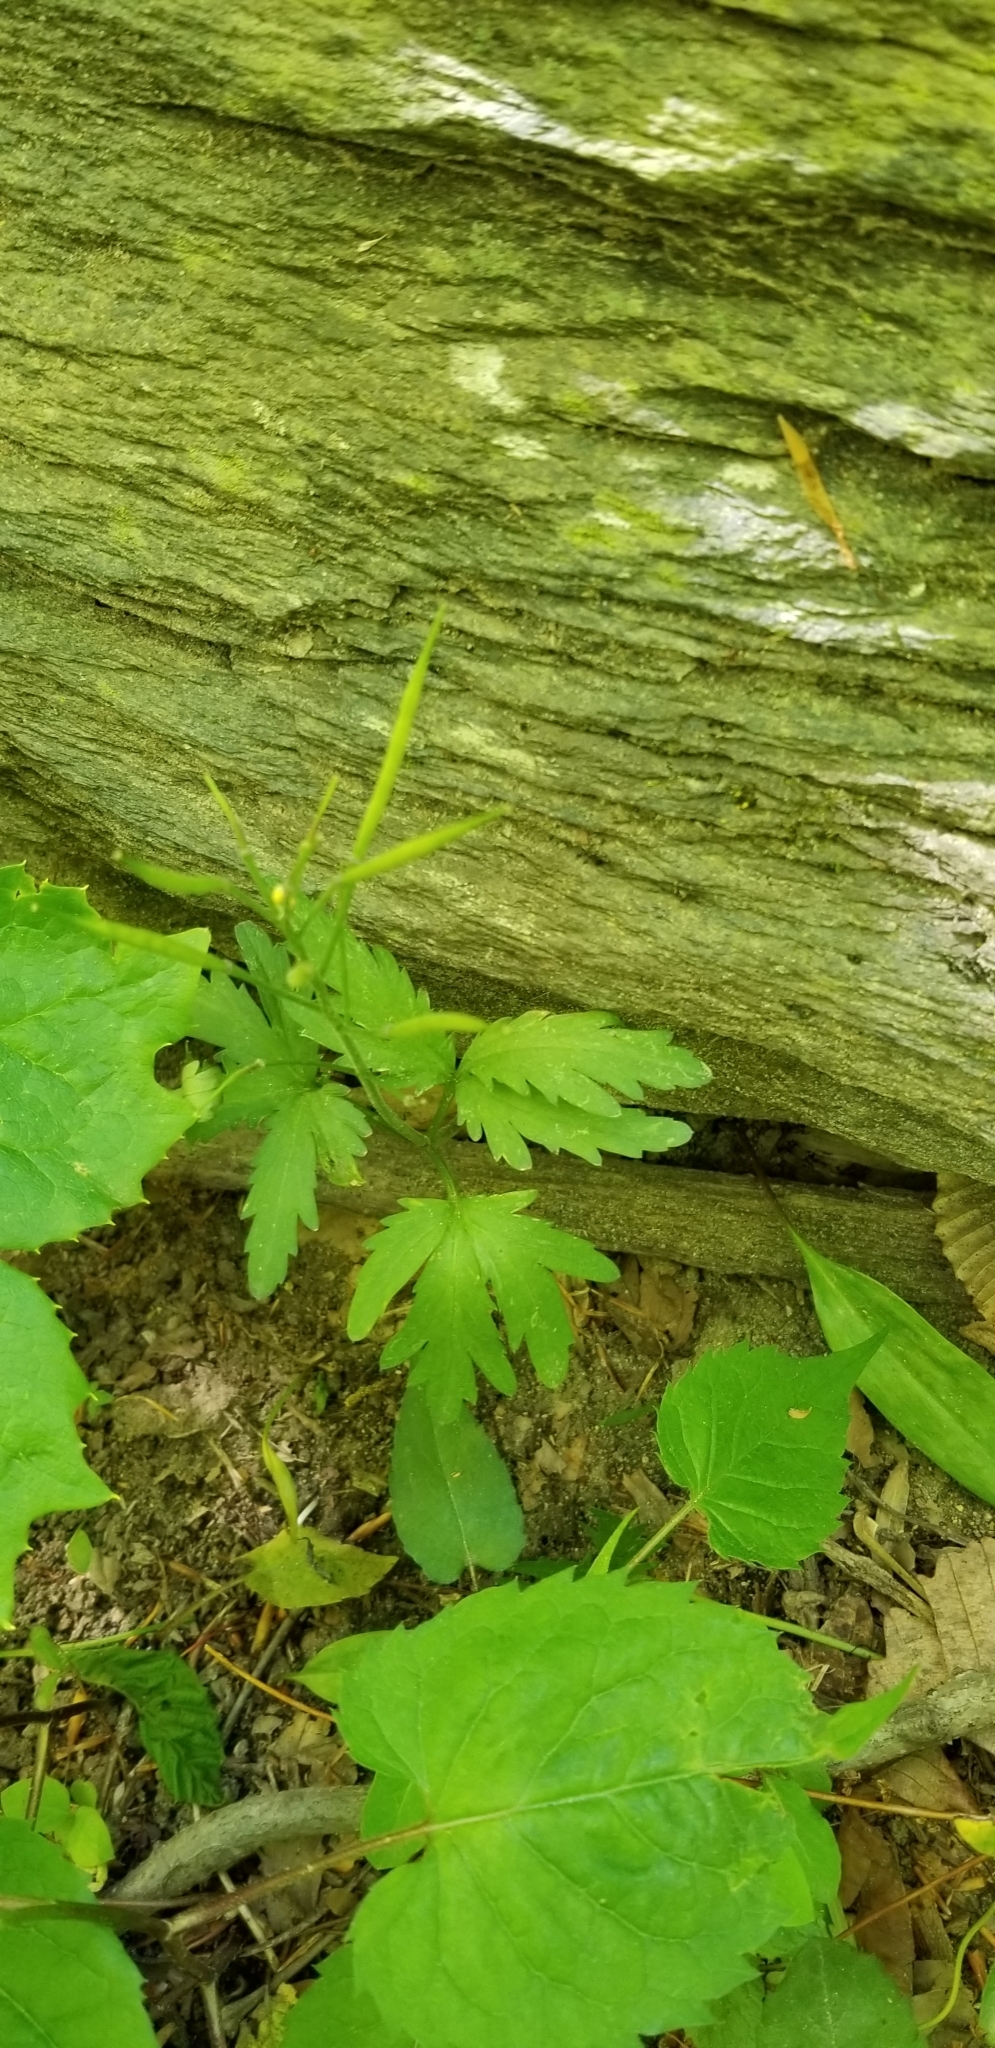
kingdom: Plantae
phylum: Tracheophyta
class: Magnoliopsida
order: Brassicales
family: Brassicaceae
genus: Cardamine
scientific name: Cardamine concatenata
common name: Cut-leaf toothcup
